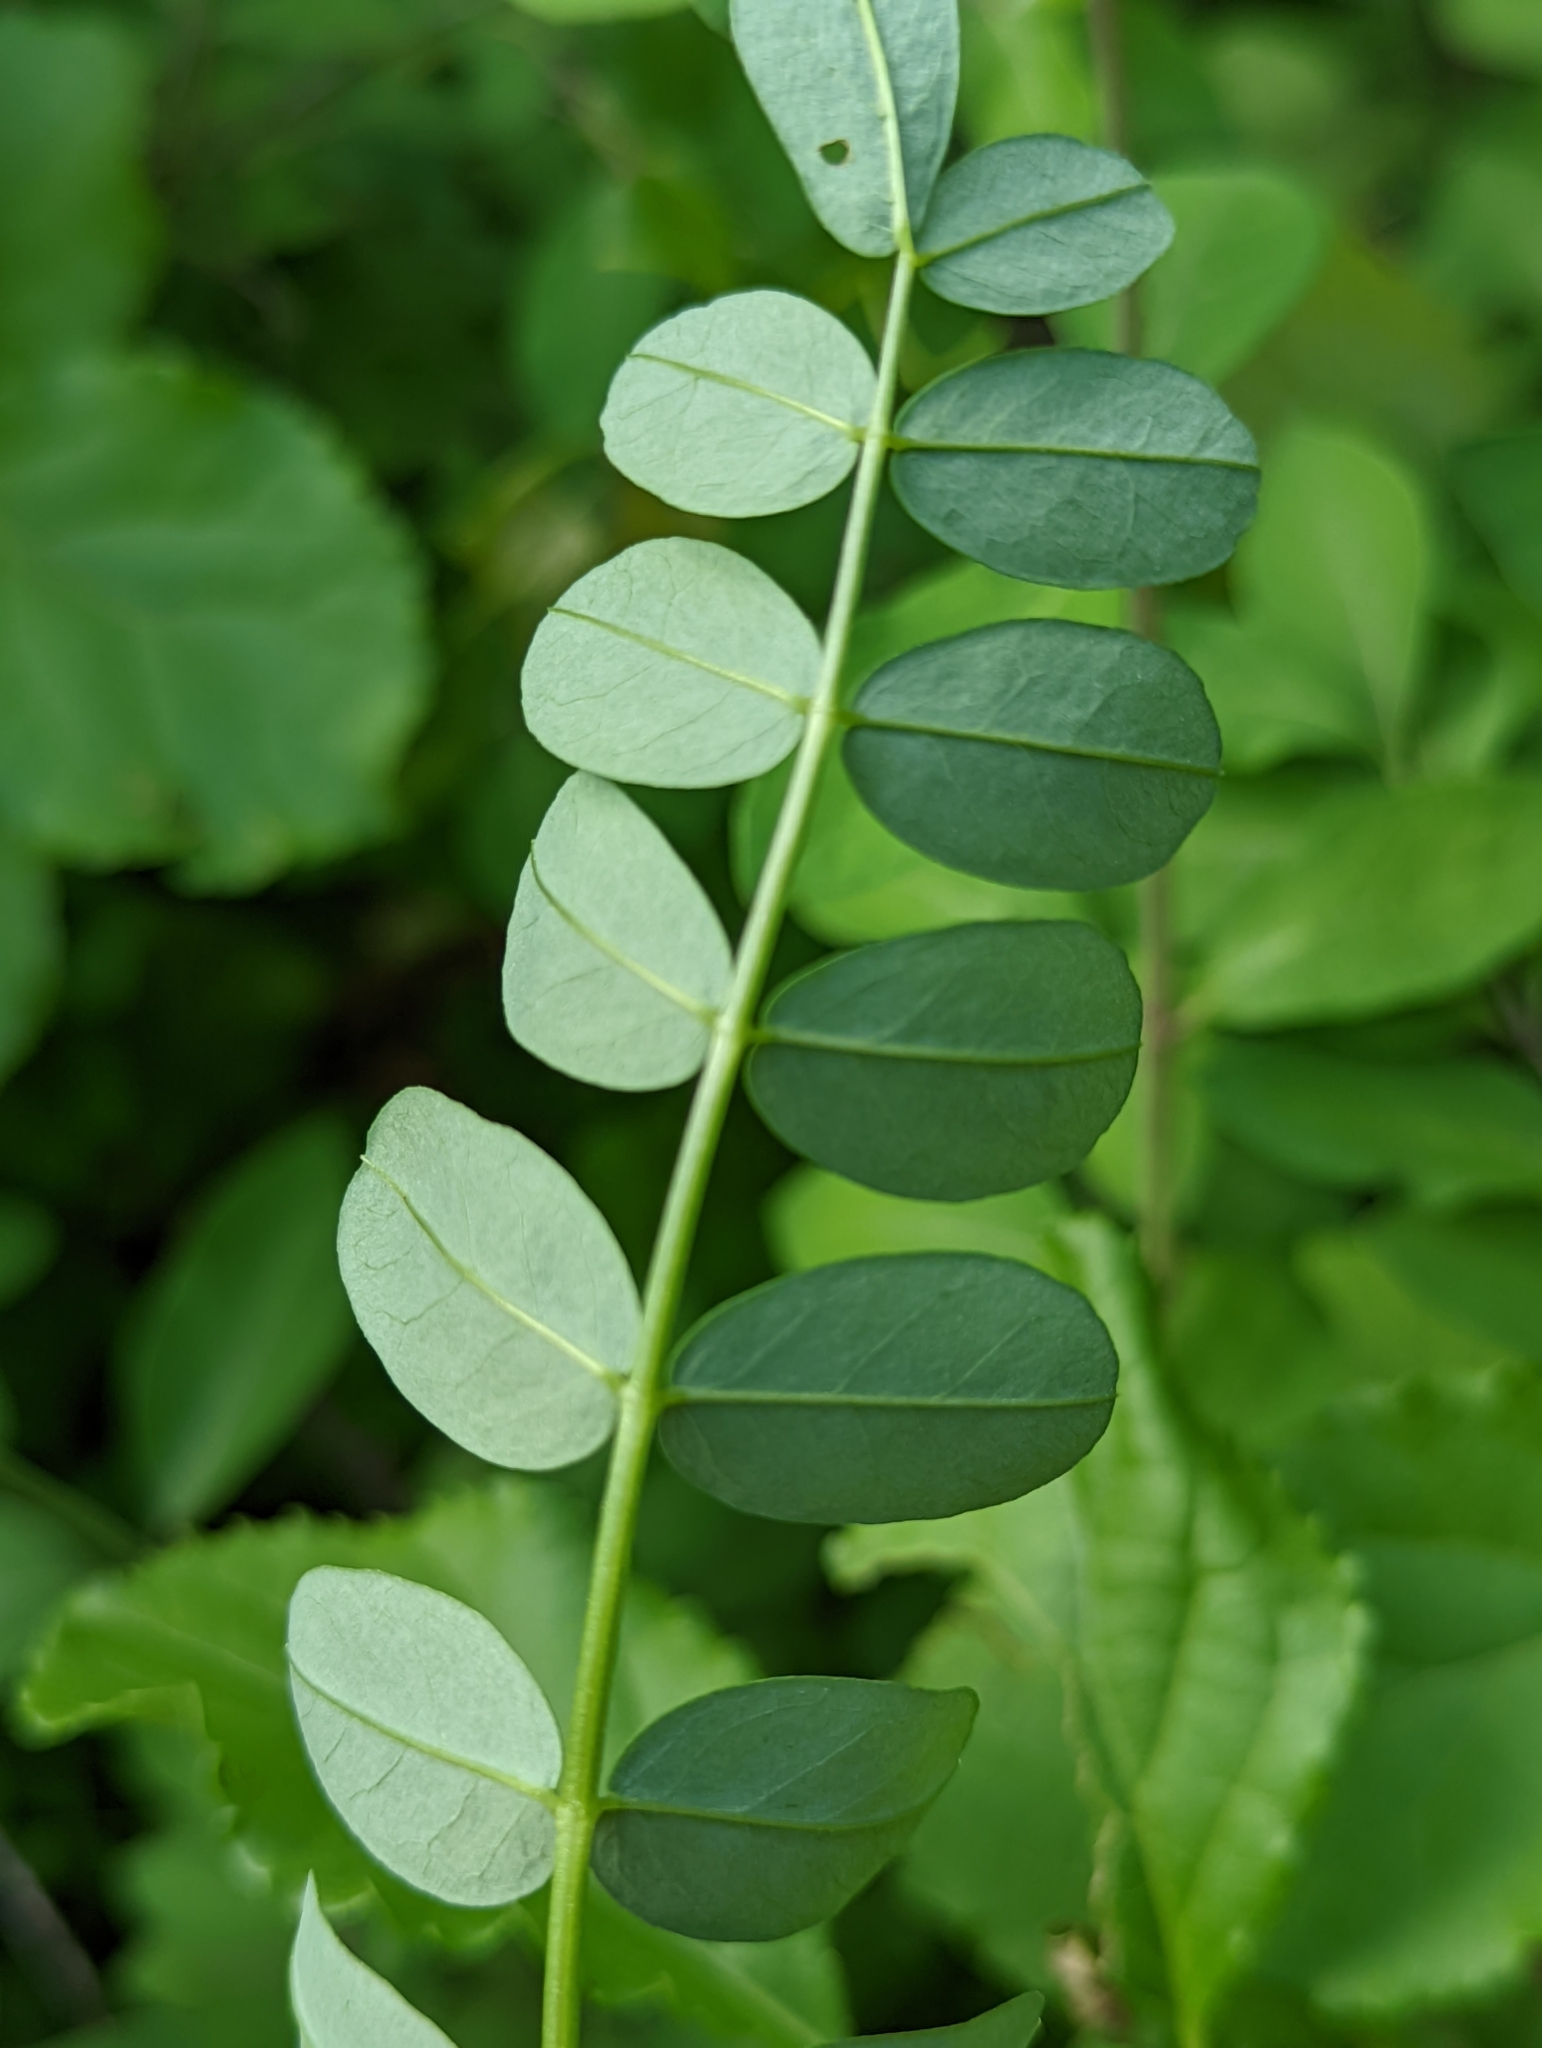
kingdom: Plantae
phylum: Tracheophyta
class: Magnoliopsida
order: Fabales
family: Fabaceae
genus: Coronilla
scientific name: Coronilla varia
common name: Crownvetch
